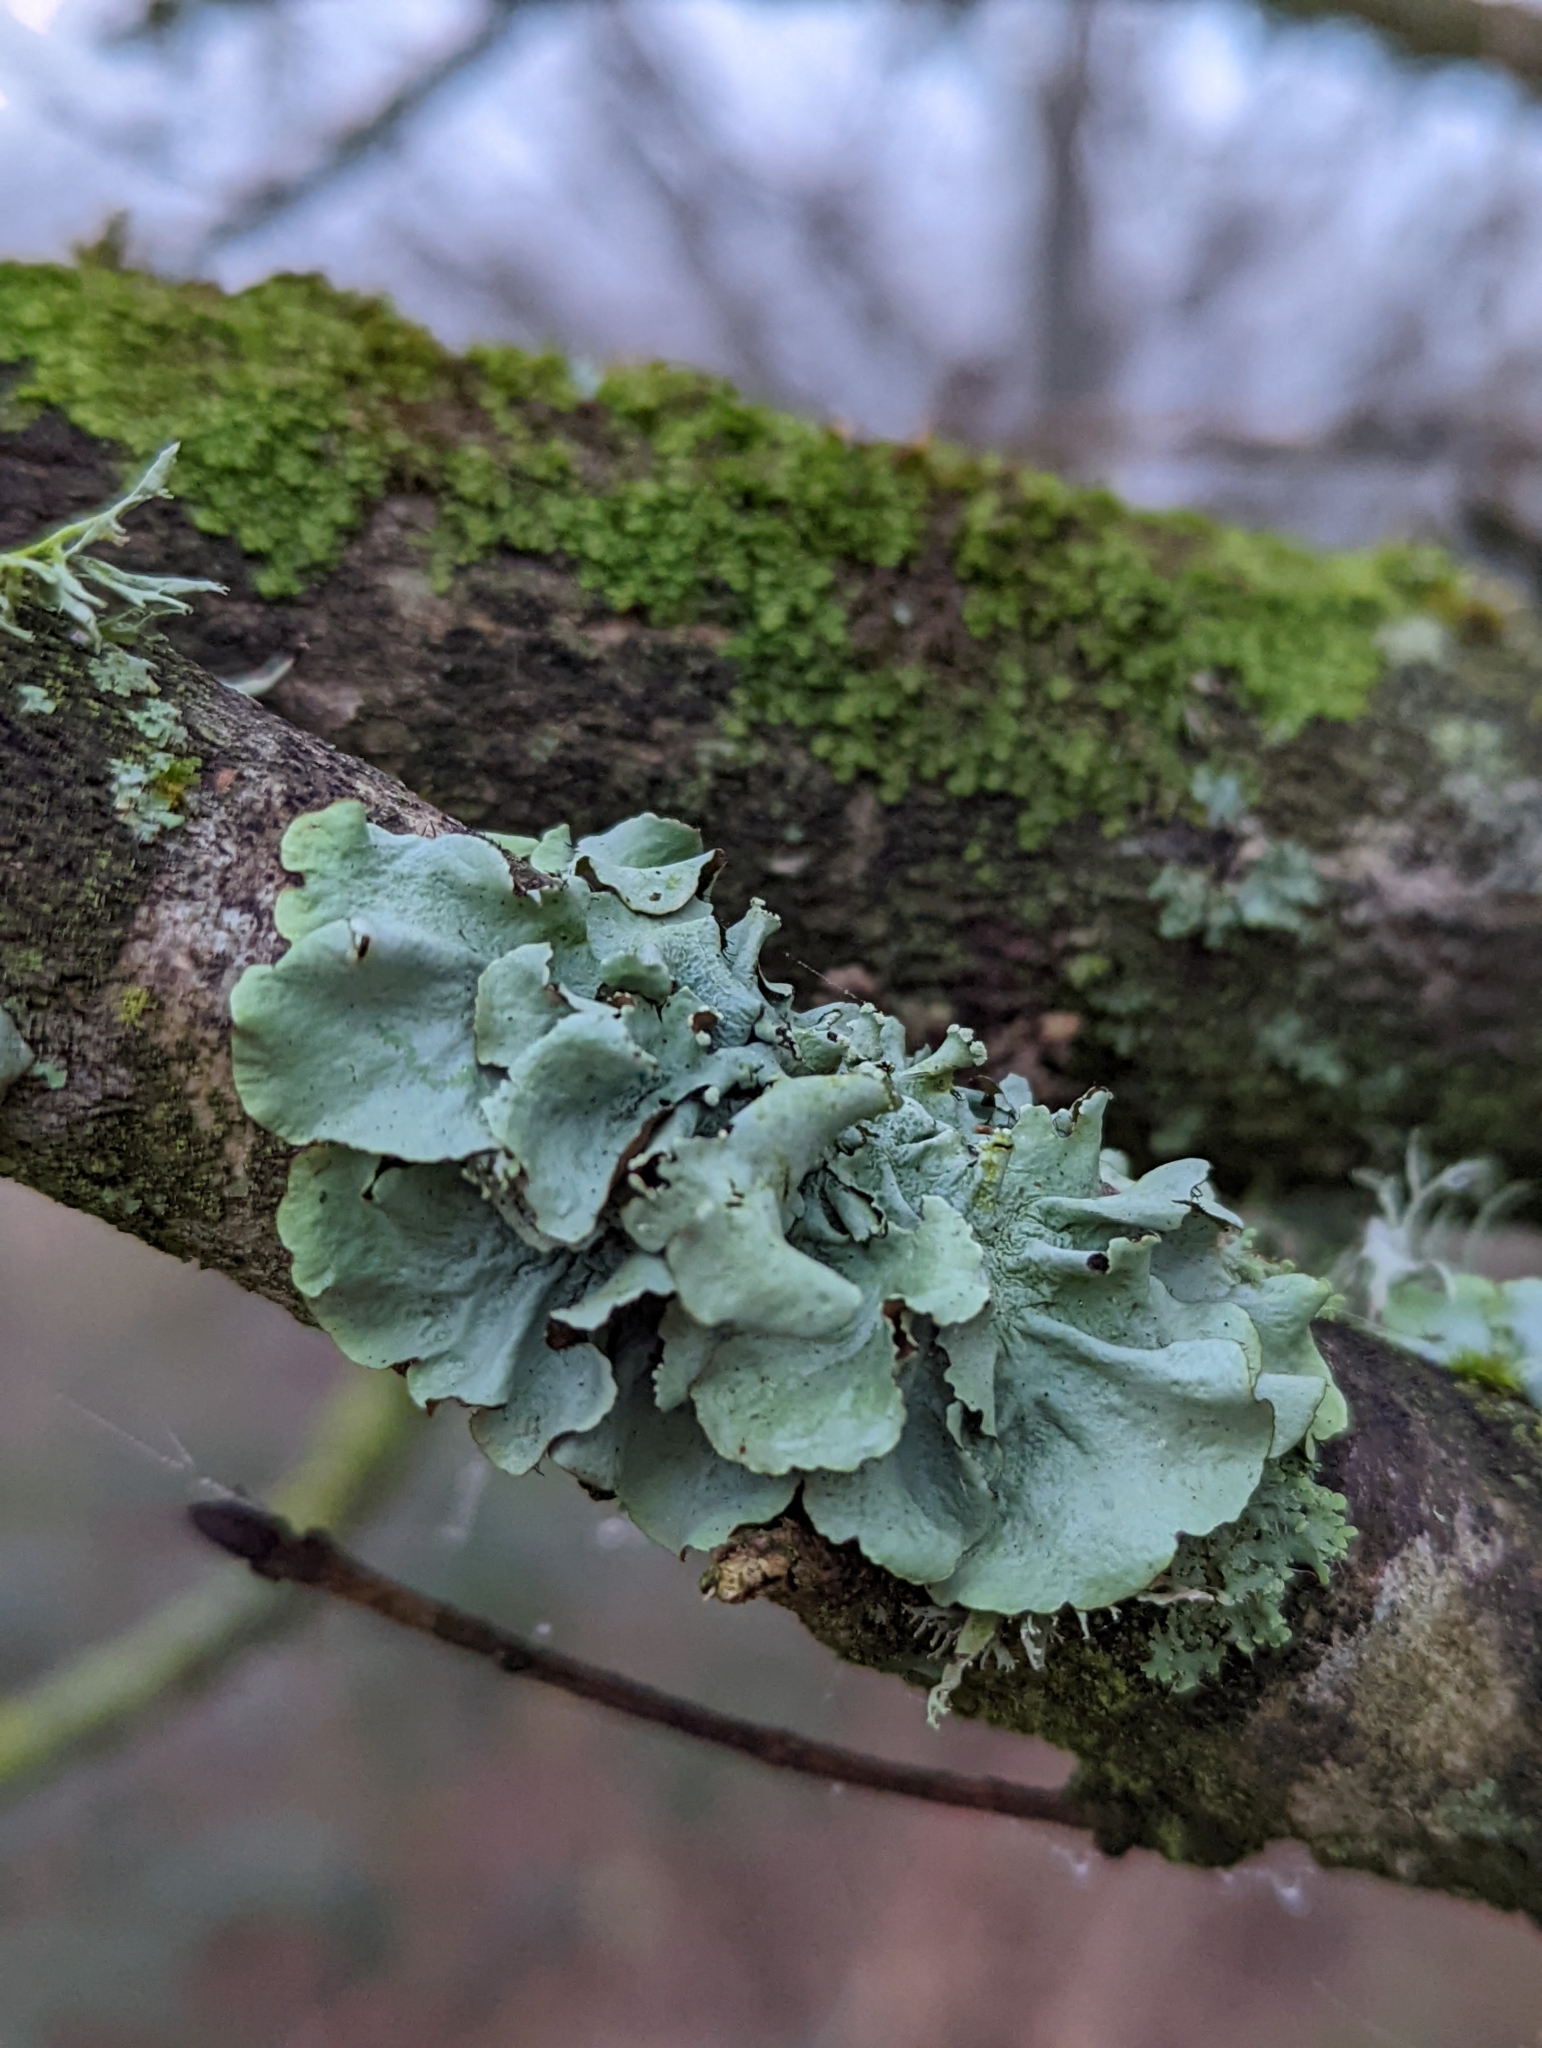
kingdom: Fungi
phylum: Ascomycota
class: Lecanoromycetes
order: Lecanorales
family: Parmeliaceae
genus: Parmotrema
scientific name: Parmotrema perlatum
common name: Black stone flower
